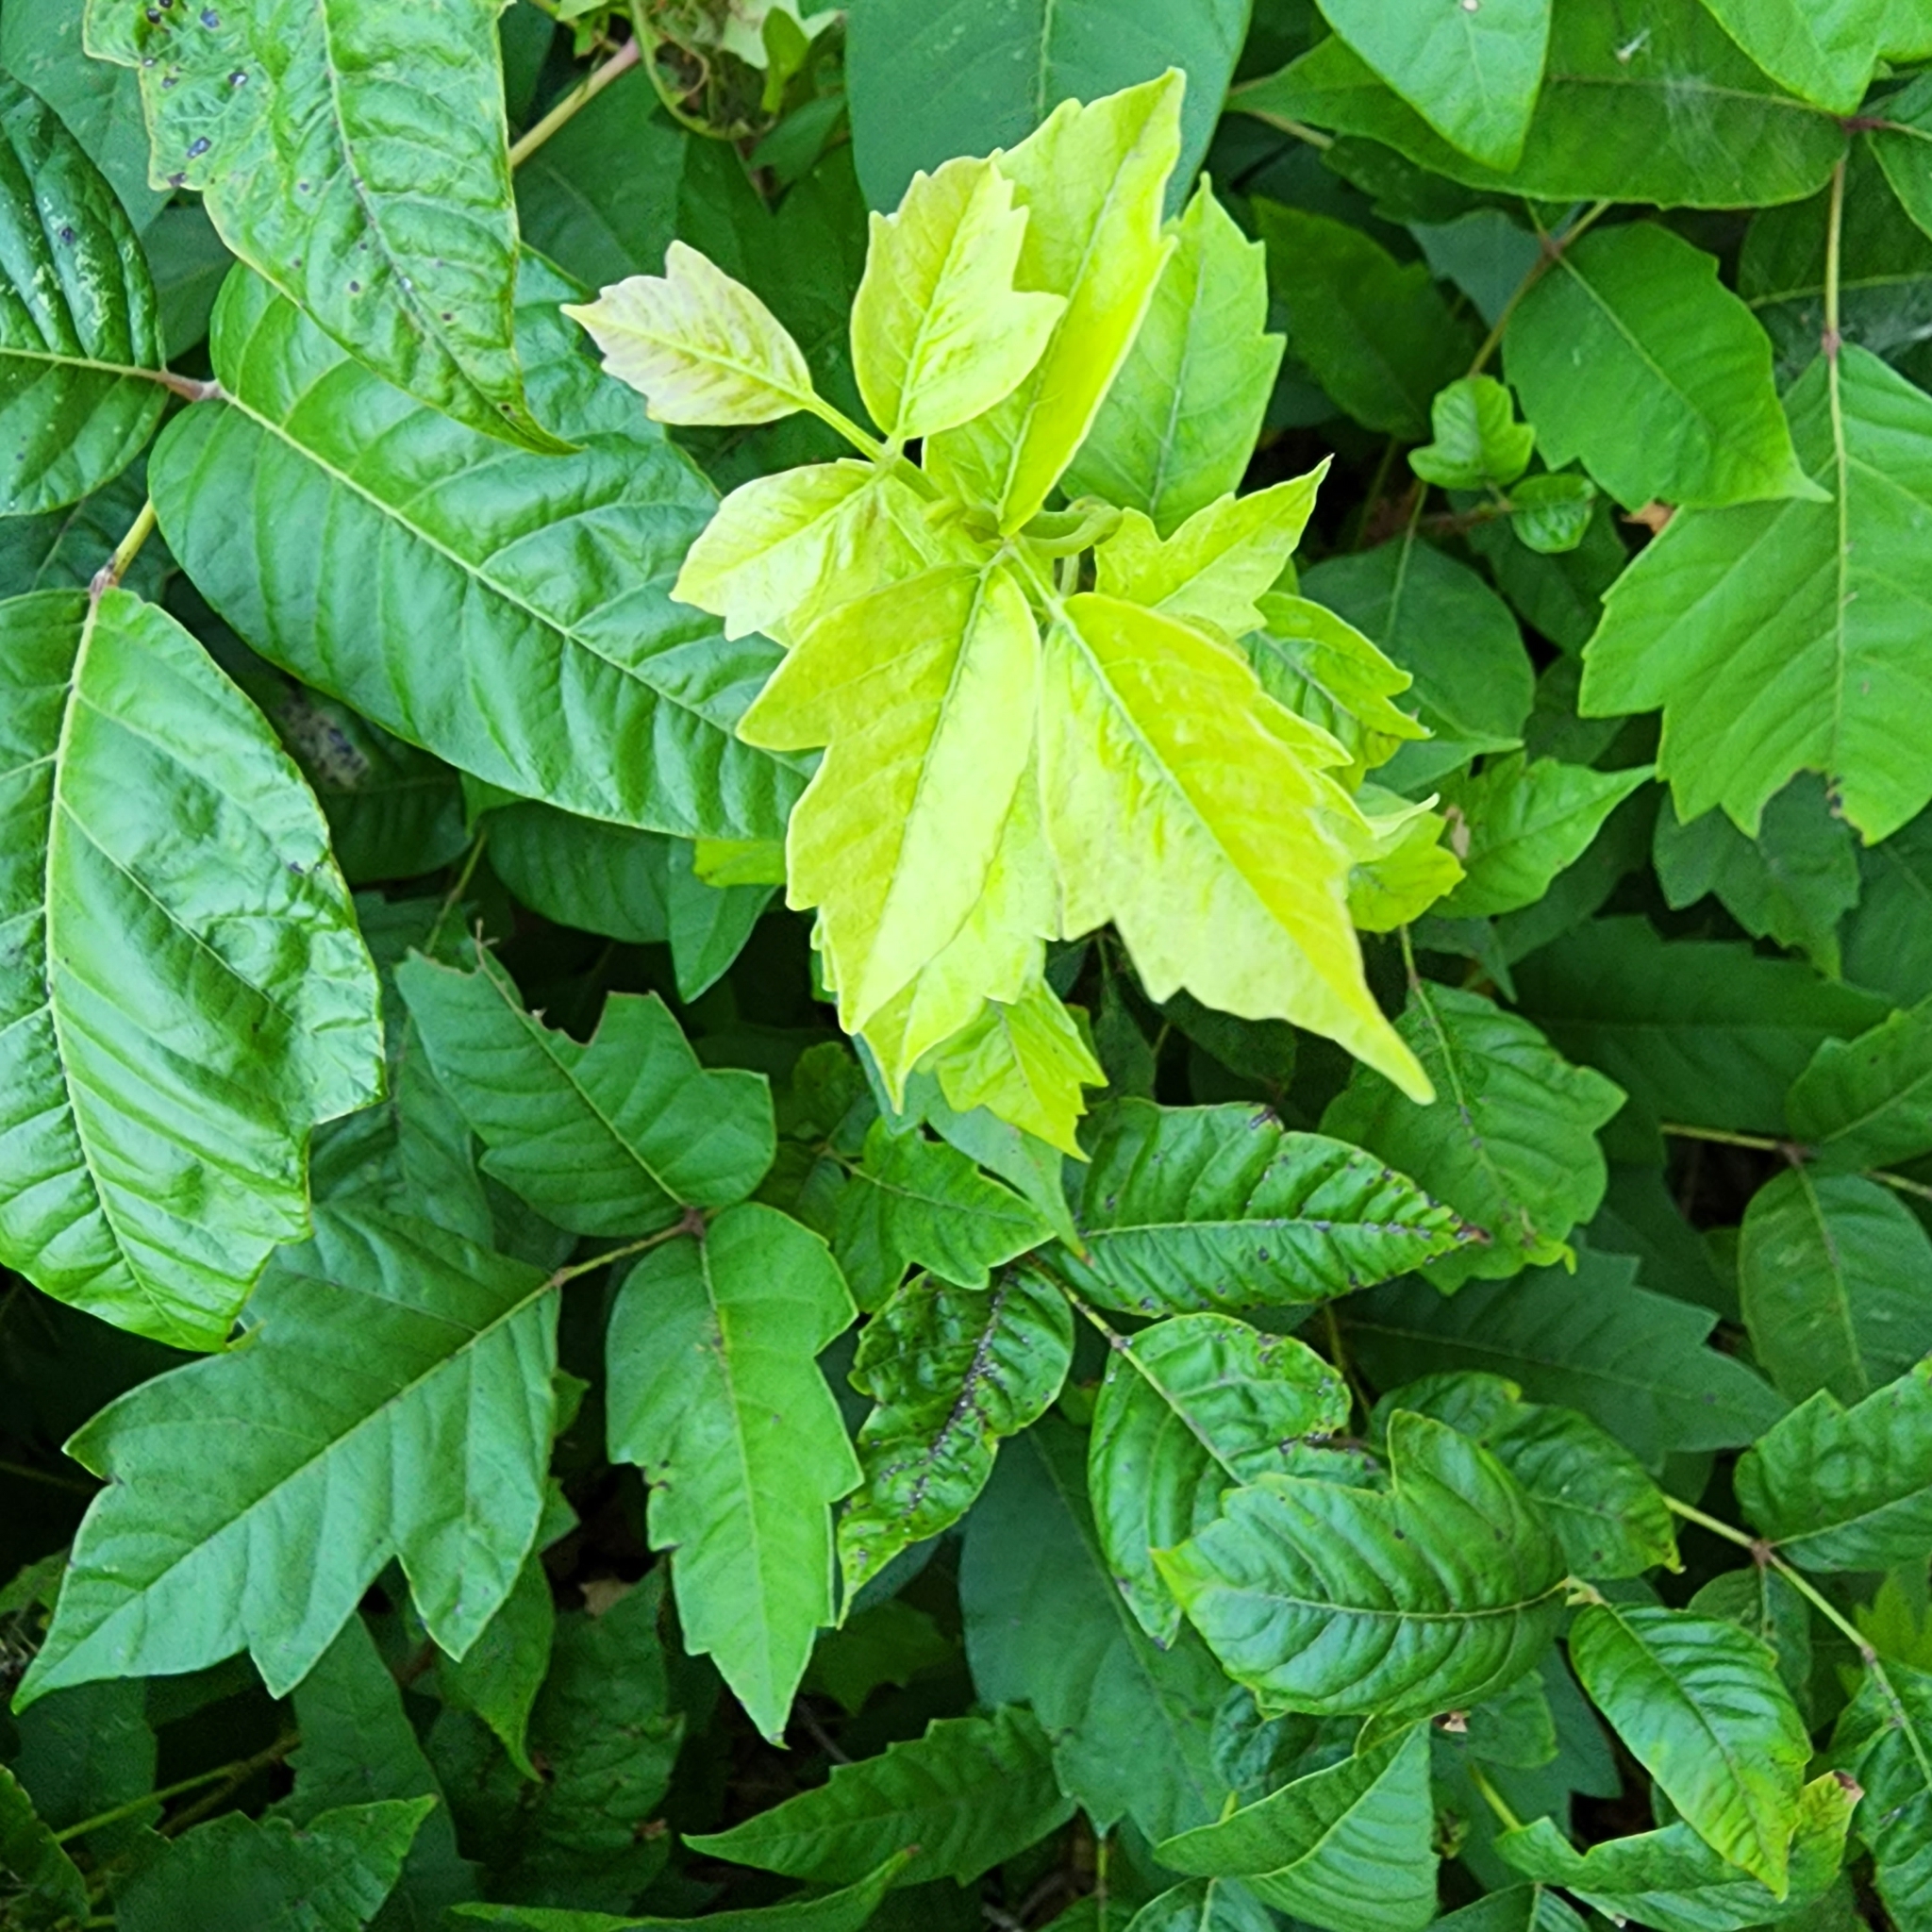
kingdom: Plantae
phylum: Tracheophyta
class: Magnoliopsida
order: Sapindales
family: Anacardiaceae
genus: Toxicodendron
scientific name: Toxicodendron radicans
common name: Poison ivy
